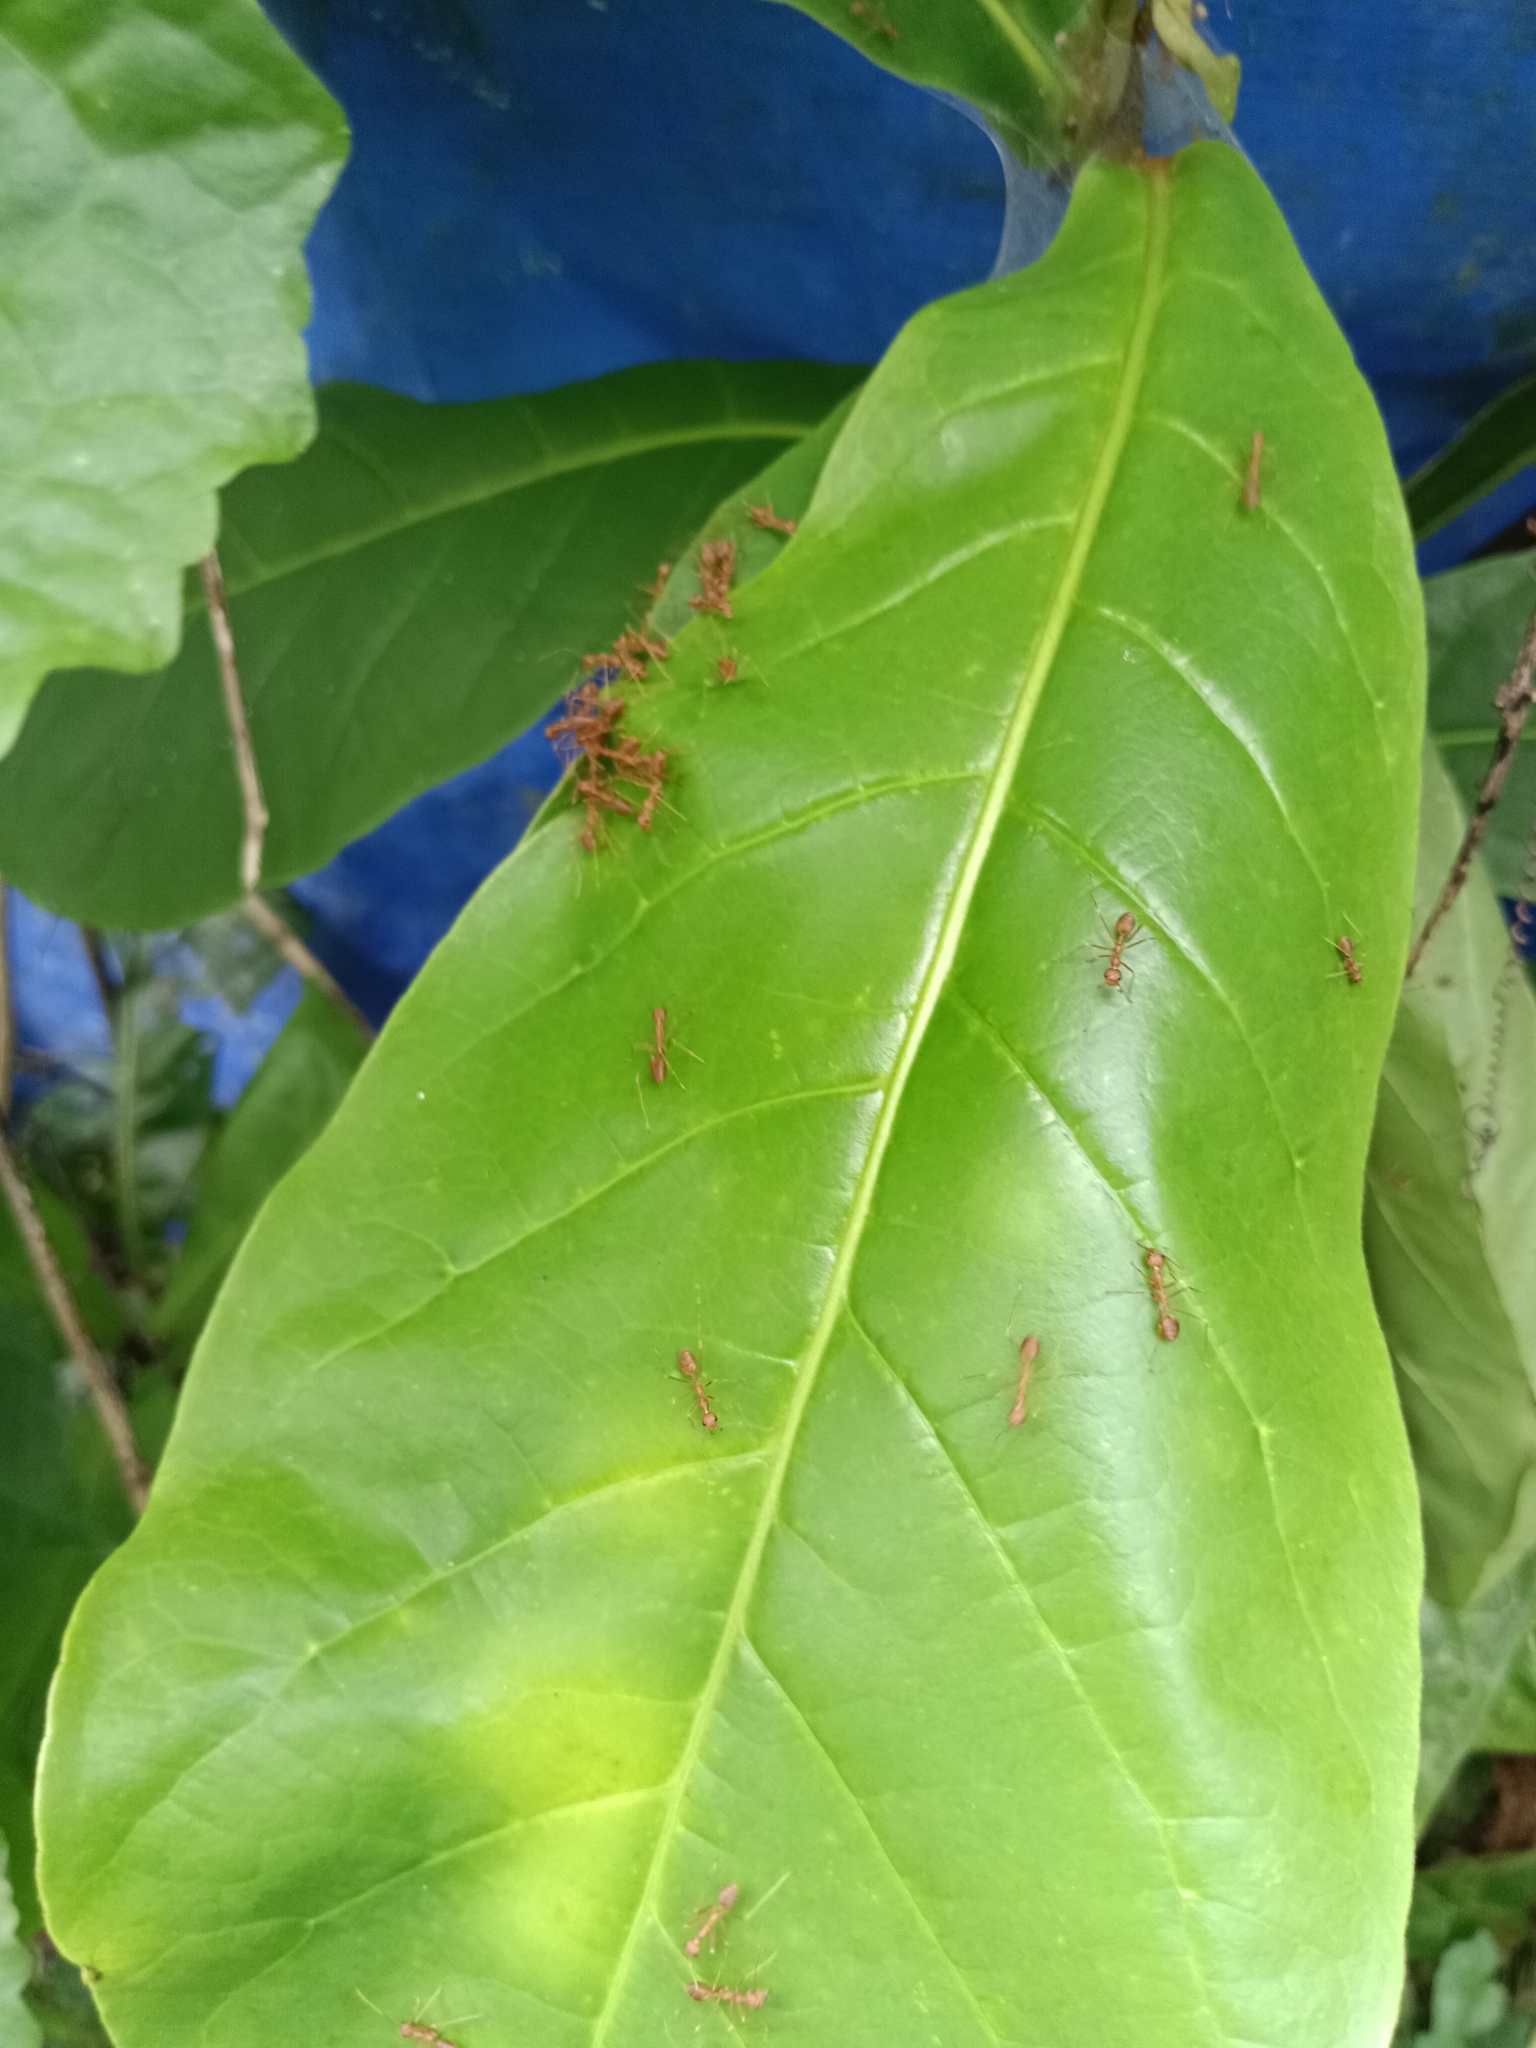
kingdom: Animalia
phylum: Arthropoda
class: Insecta
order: Hymenoptera
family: Formicidae
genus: Oecophylla
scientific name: Oecophylla smaragdina
